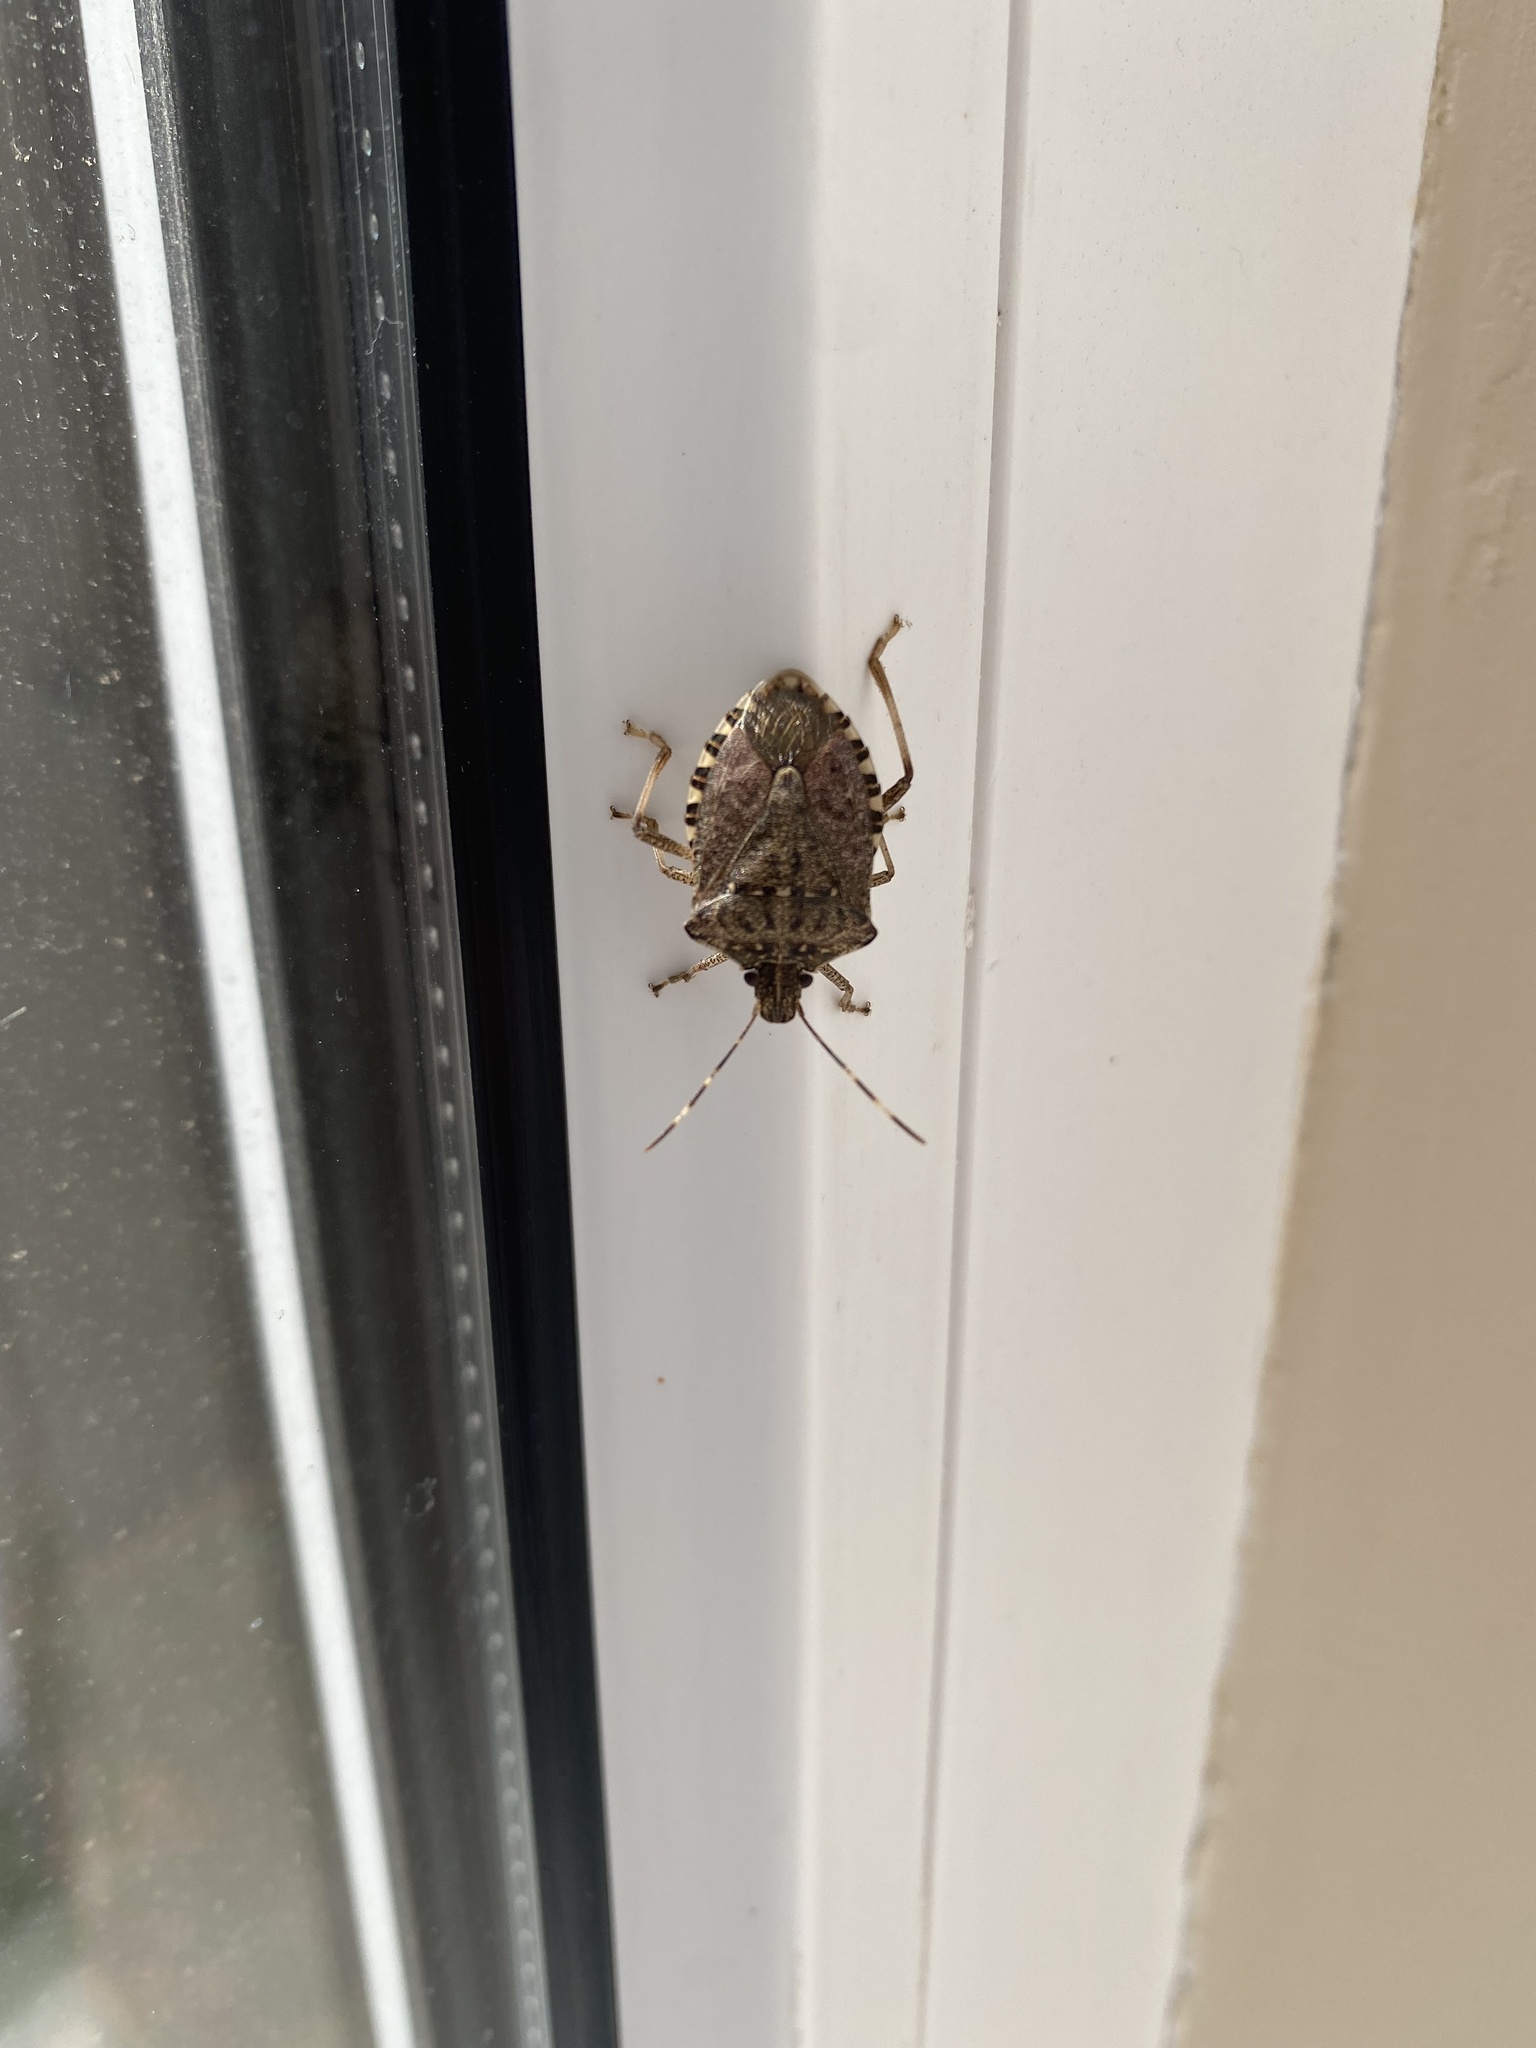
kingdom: Animalia
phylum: Arthropoda
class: Insecta
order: Hemiptera
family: Pentatomidae
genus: Halyomorpha
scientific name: Halyomorpha halys
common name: Brown marmorated stink bug
